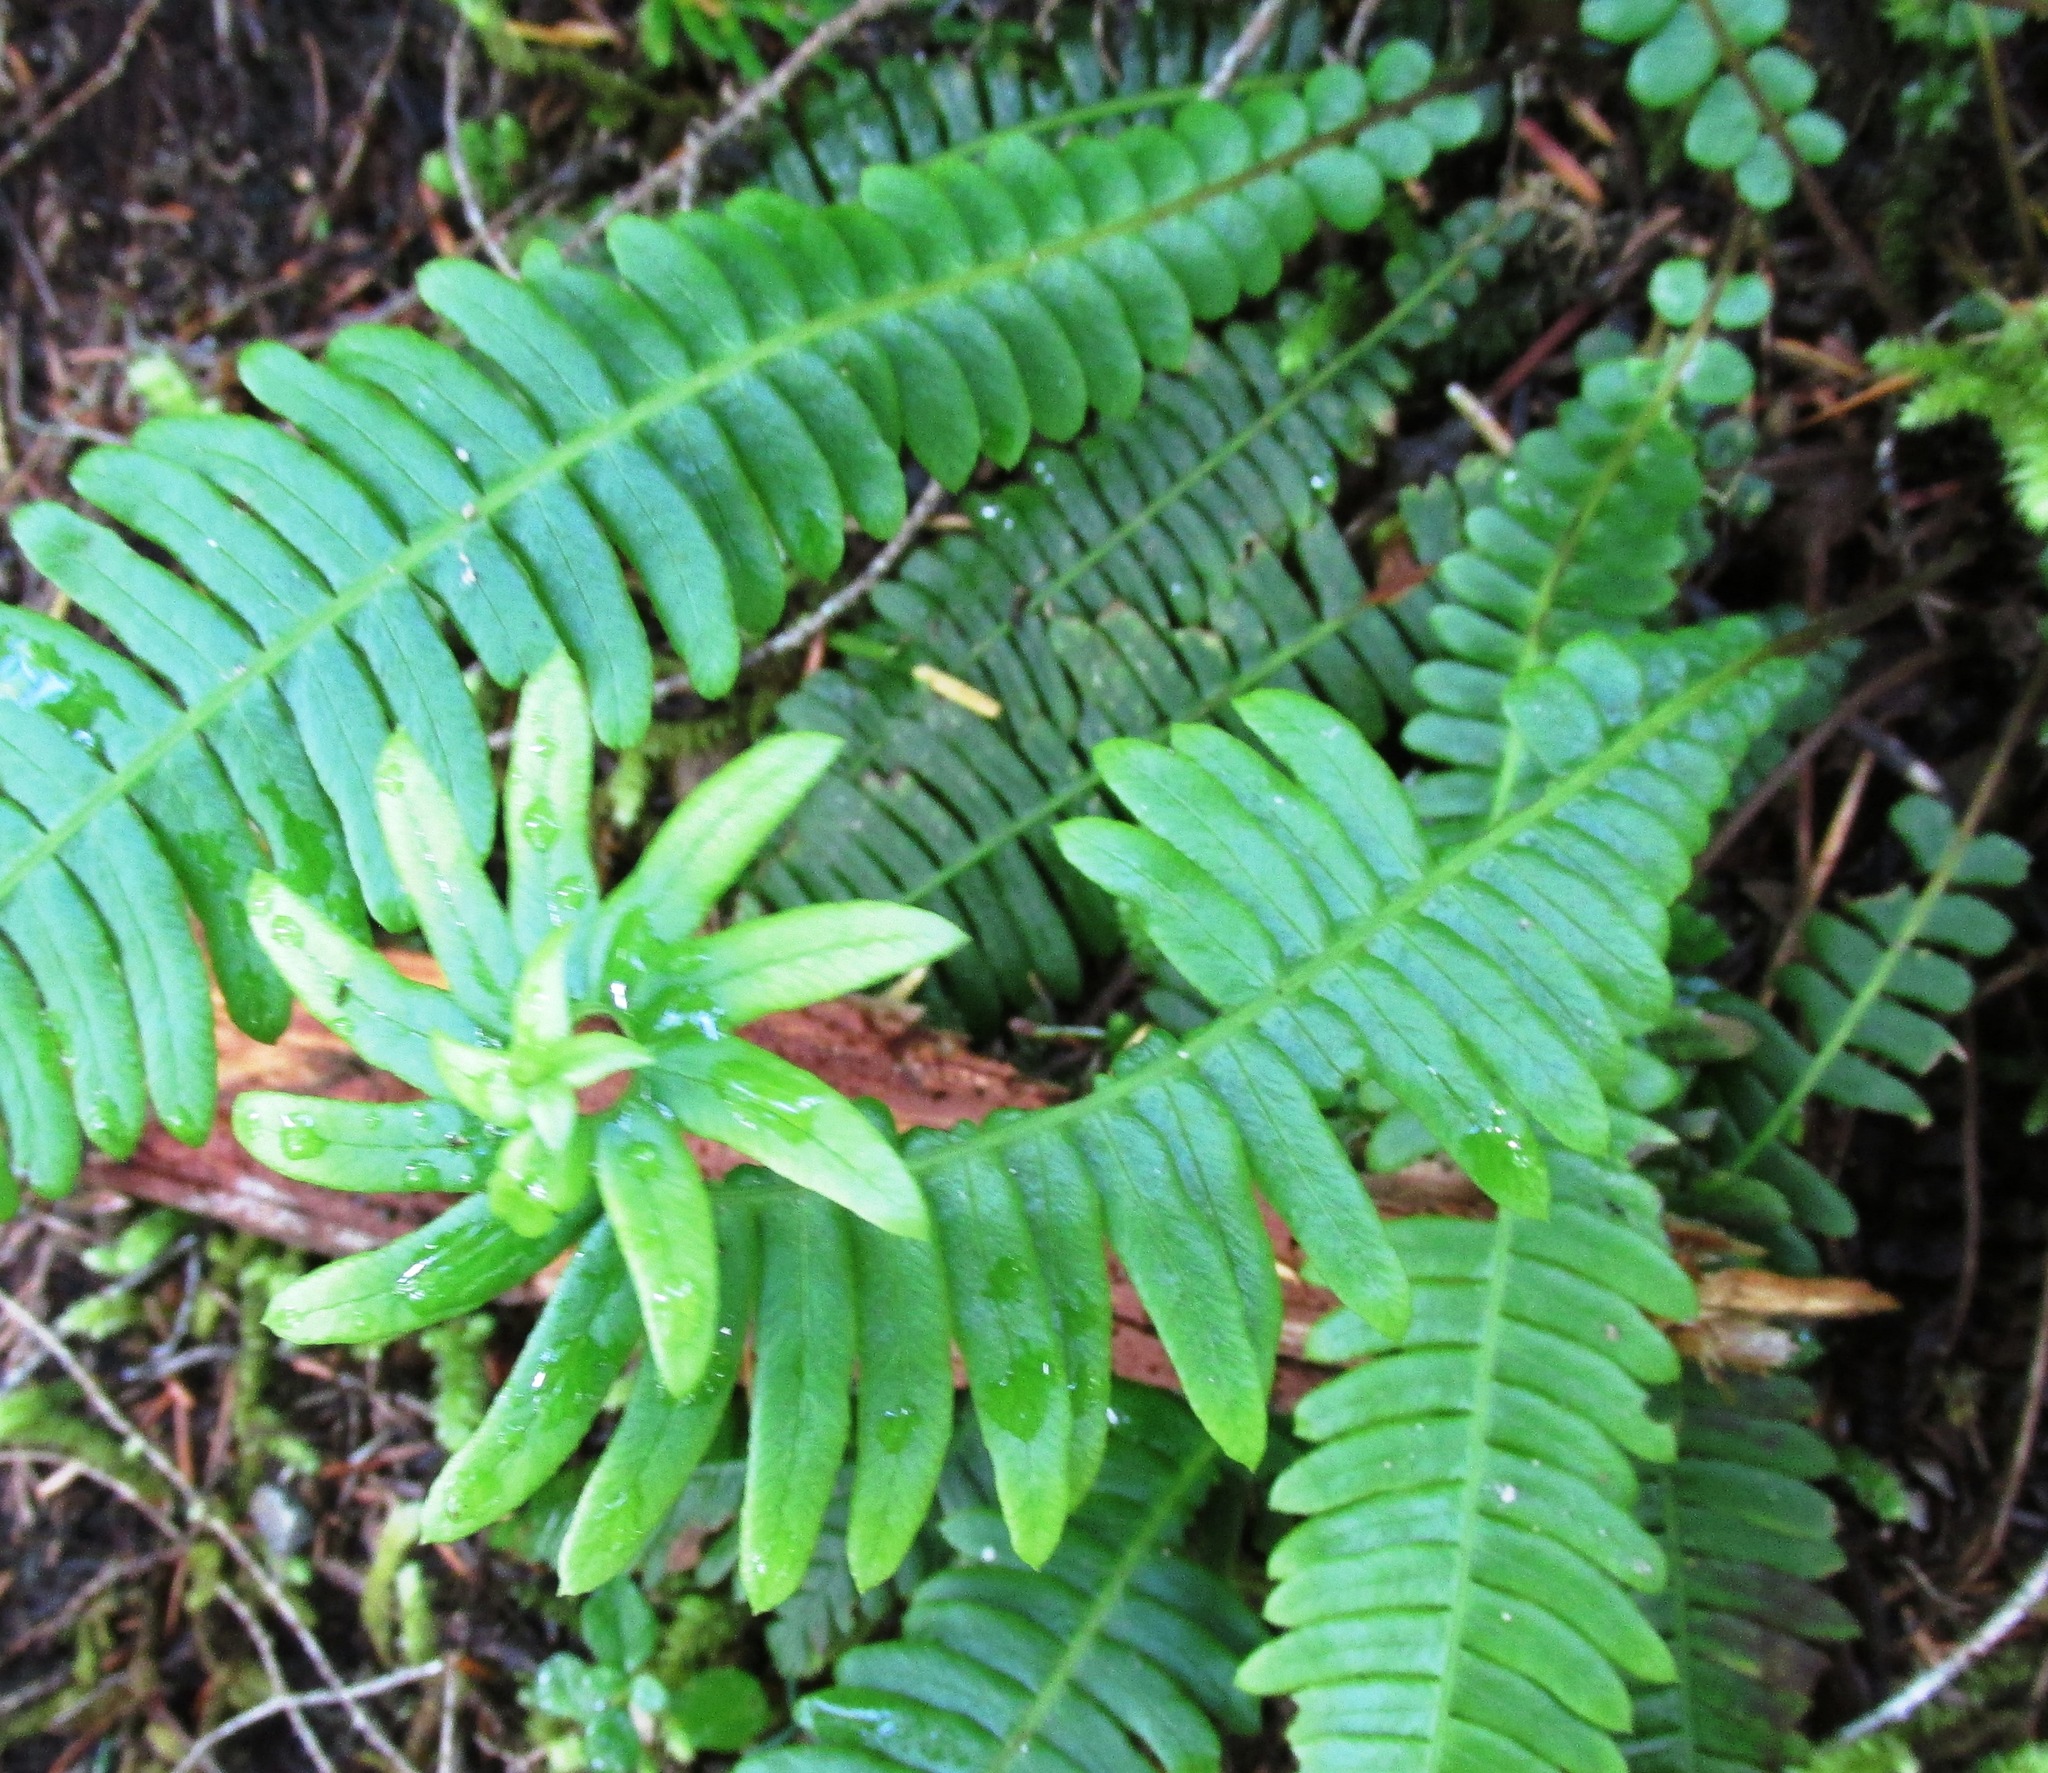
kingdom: Plantae
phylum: Tracheophyta
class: Polypodiopsida
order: Polypodiales
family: Blechnaceae
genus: Struthiopteris
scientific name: Struthiopteris spicant
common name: Deer fern
